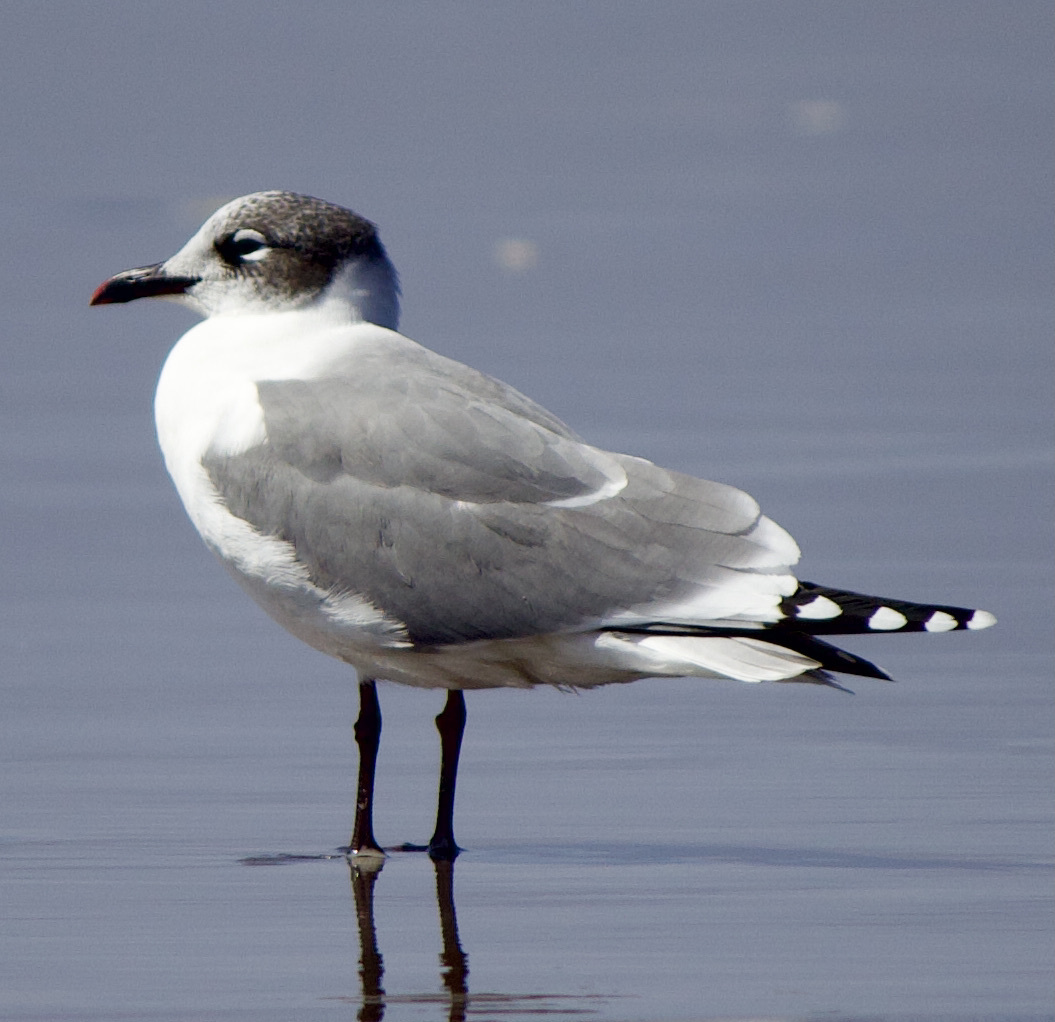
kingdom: Animalia
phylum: Chordata
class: Aves
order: Charadriiformes
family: Laridae
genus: Leucophaeus
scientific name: Leucophaeus pipixcan
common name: Franklin's gull
